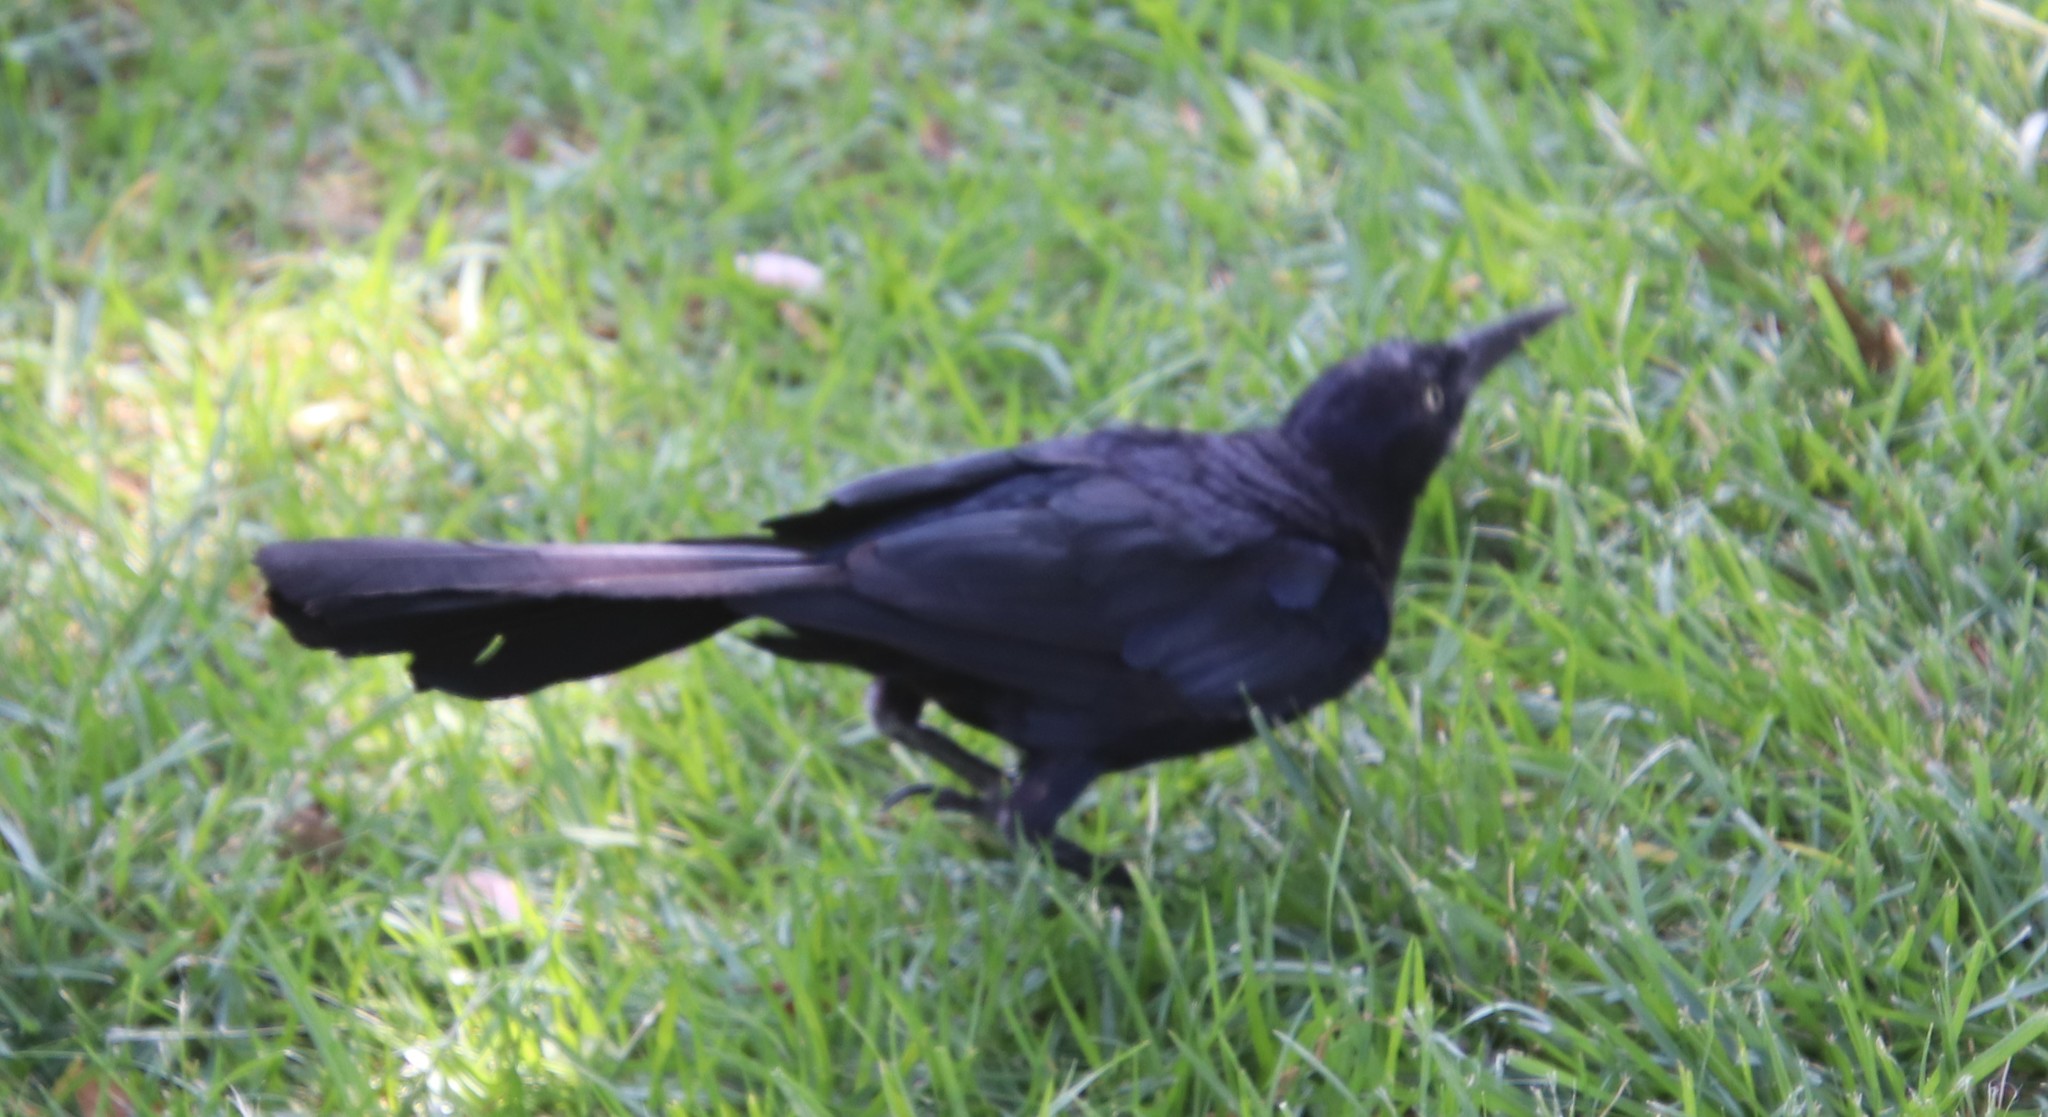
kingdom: Animalia
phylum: Chordata
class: Aves
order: Passeriformes
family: Icteridae
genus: Quiscalus
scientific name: Quiscalus mexicanus
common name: Great-tailed grackle
